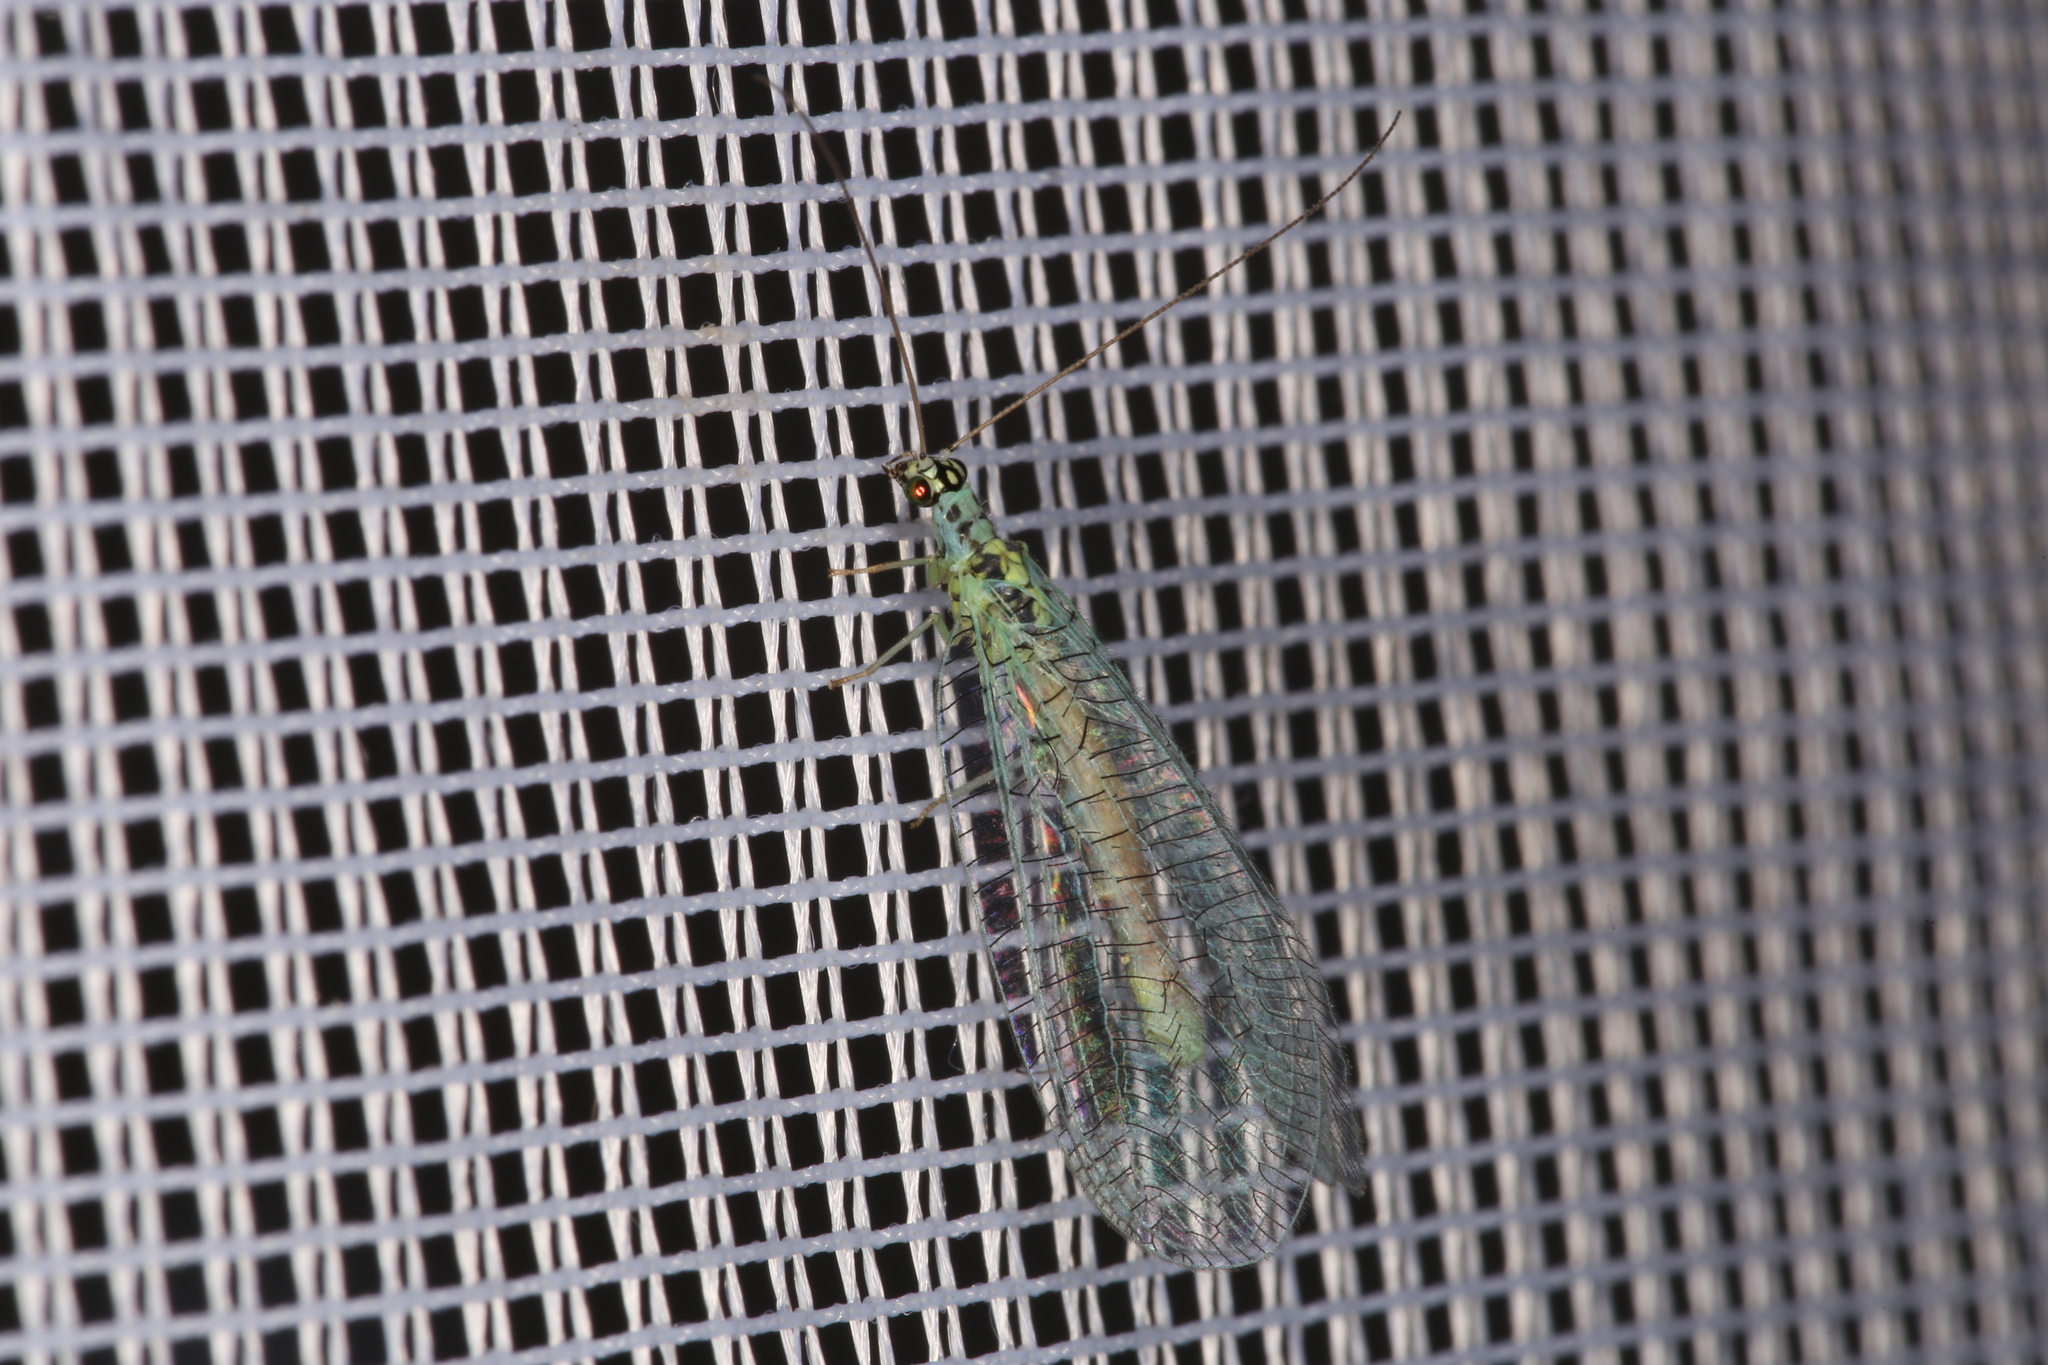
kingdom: Animalia
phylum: Arthropoda
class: Insecta
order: Neuroptera
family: Chrysopidae
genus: Chrysopa
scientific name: Chrysopa perla
